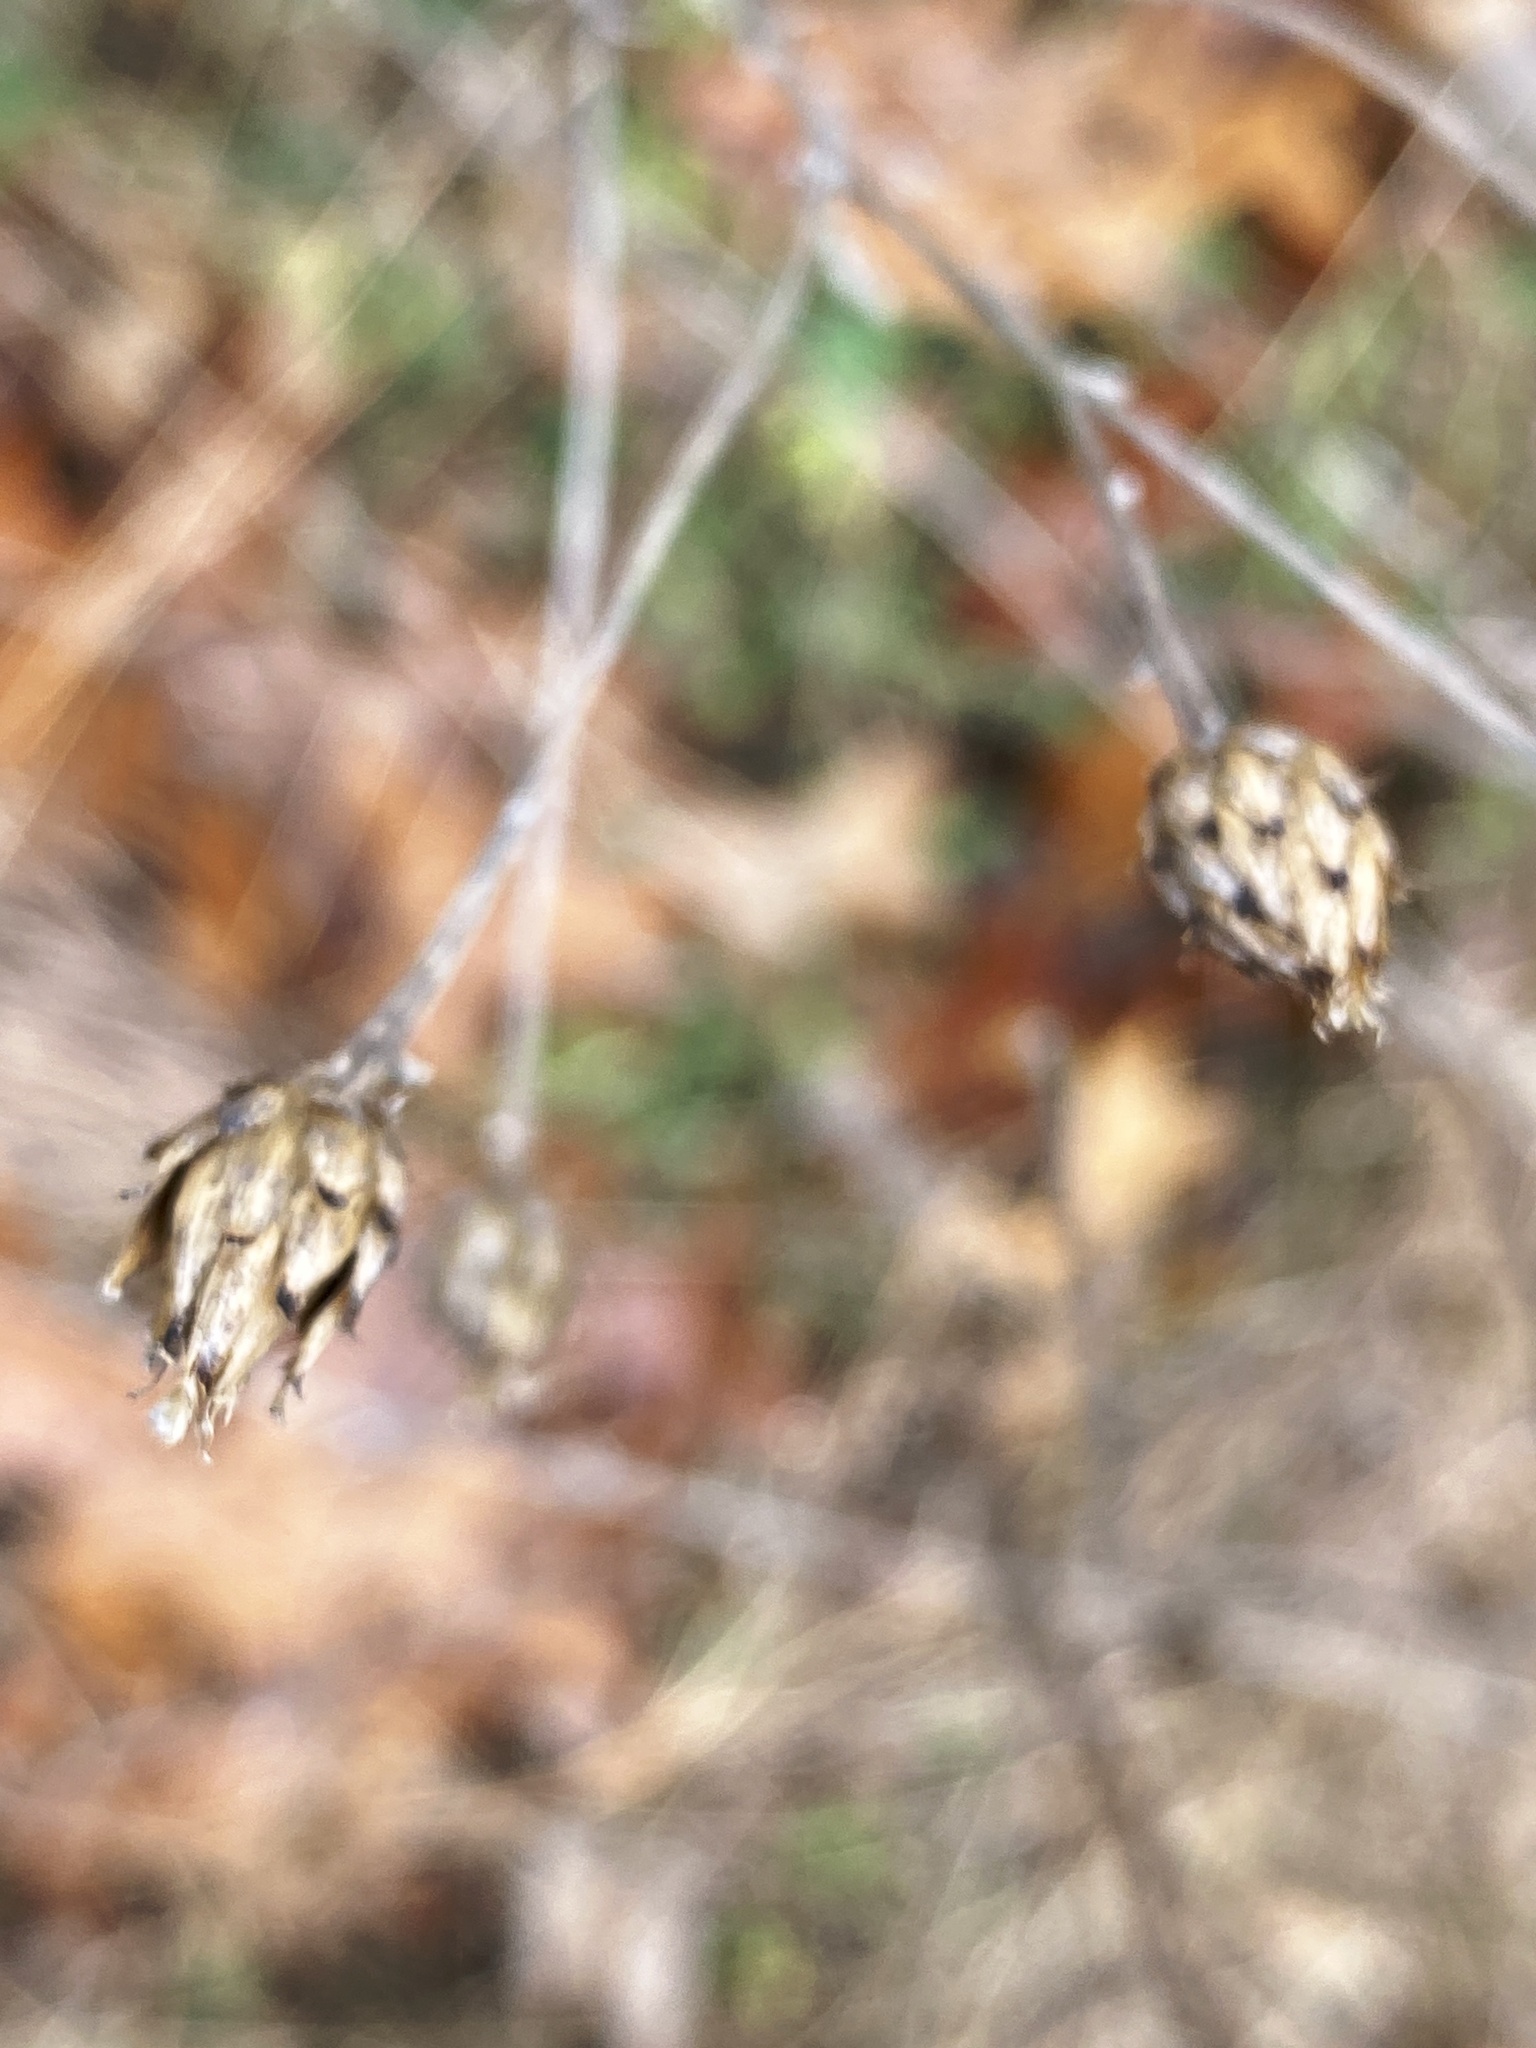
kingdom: Plantae
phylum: Tracheophyta
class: Magnoliopsida
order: Asterales
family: Asteraceae
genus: Centaurea
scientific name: Centaurea stoebe
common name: Spotted knapweed
